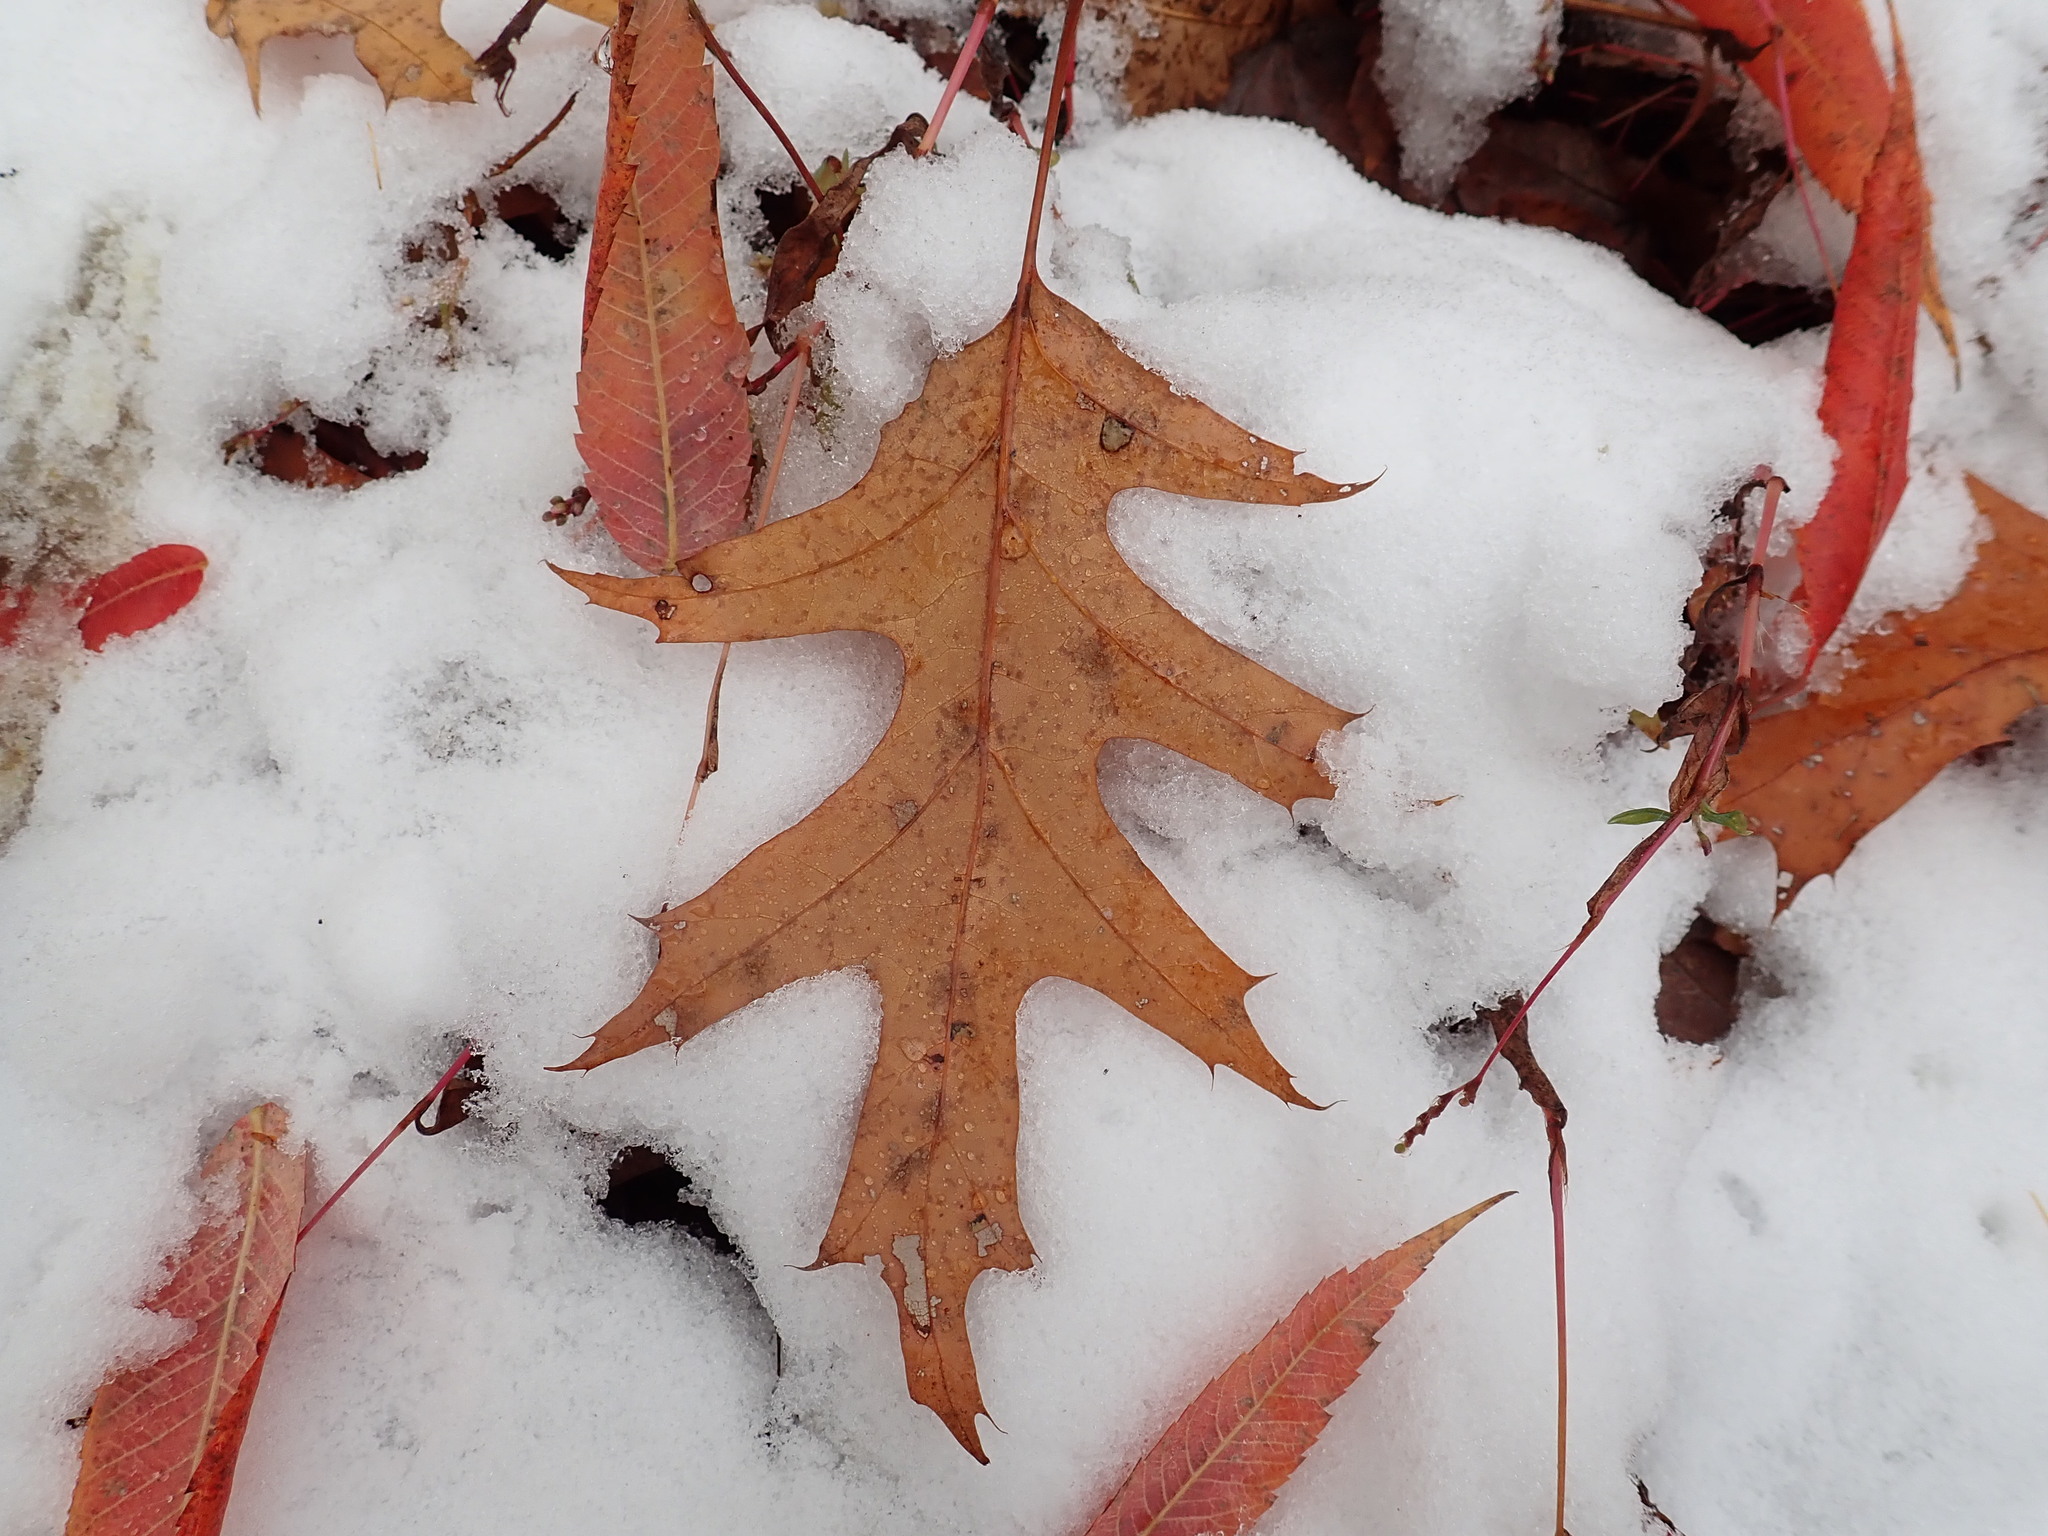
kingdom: Plantae
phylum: Tracheophyta
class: Magnoliopsida
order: Fagales
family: Fagaceae
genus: Quercus
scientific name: Quercus rubra
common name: Red oak
